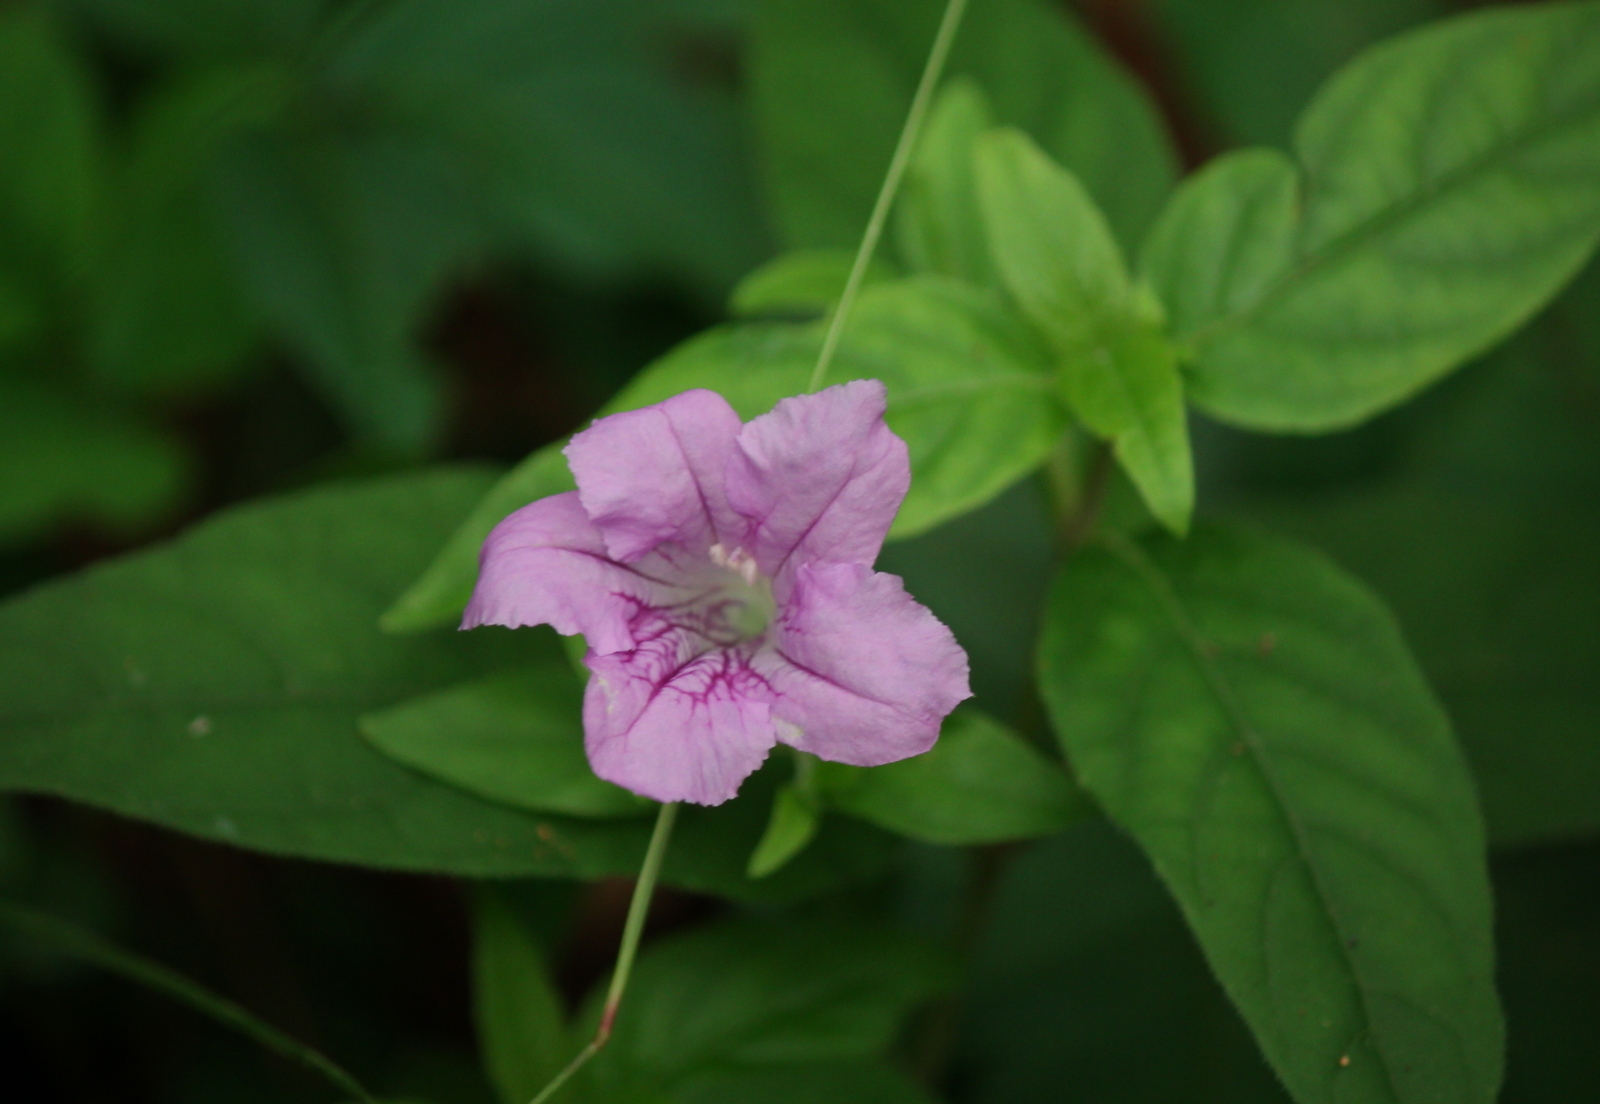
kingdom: Plantae
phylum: Tracheophyta
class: Magnoliopsida
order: Lamiales
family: Acanthaceae
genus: Ruellia
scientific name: Ruellia pedunculata
